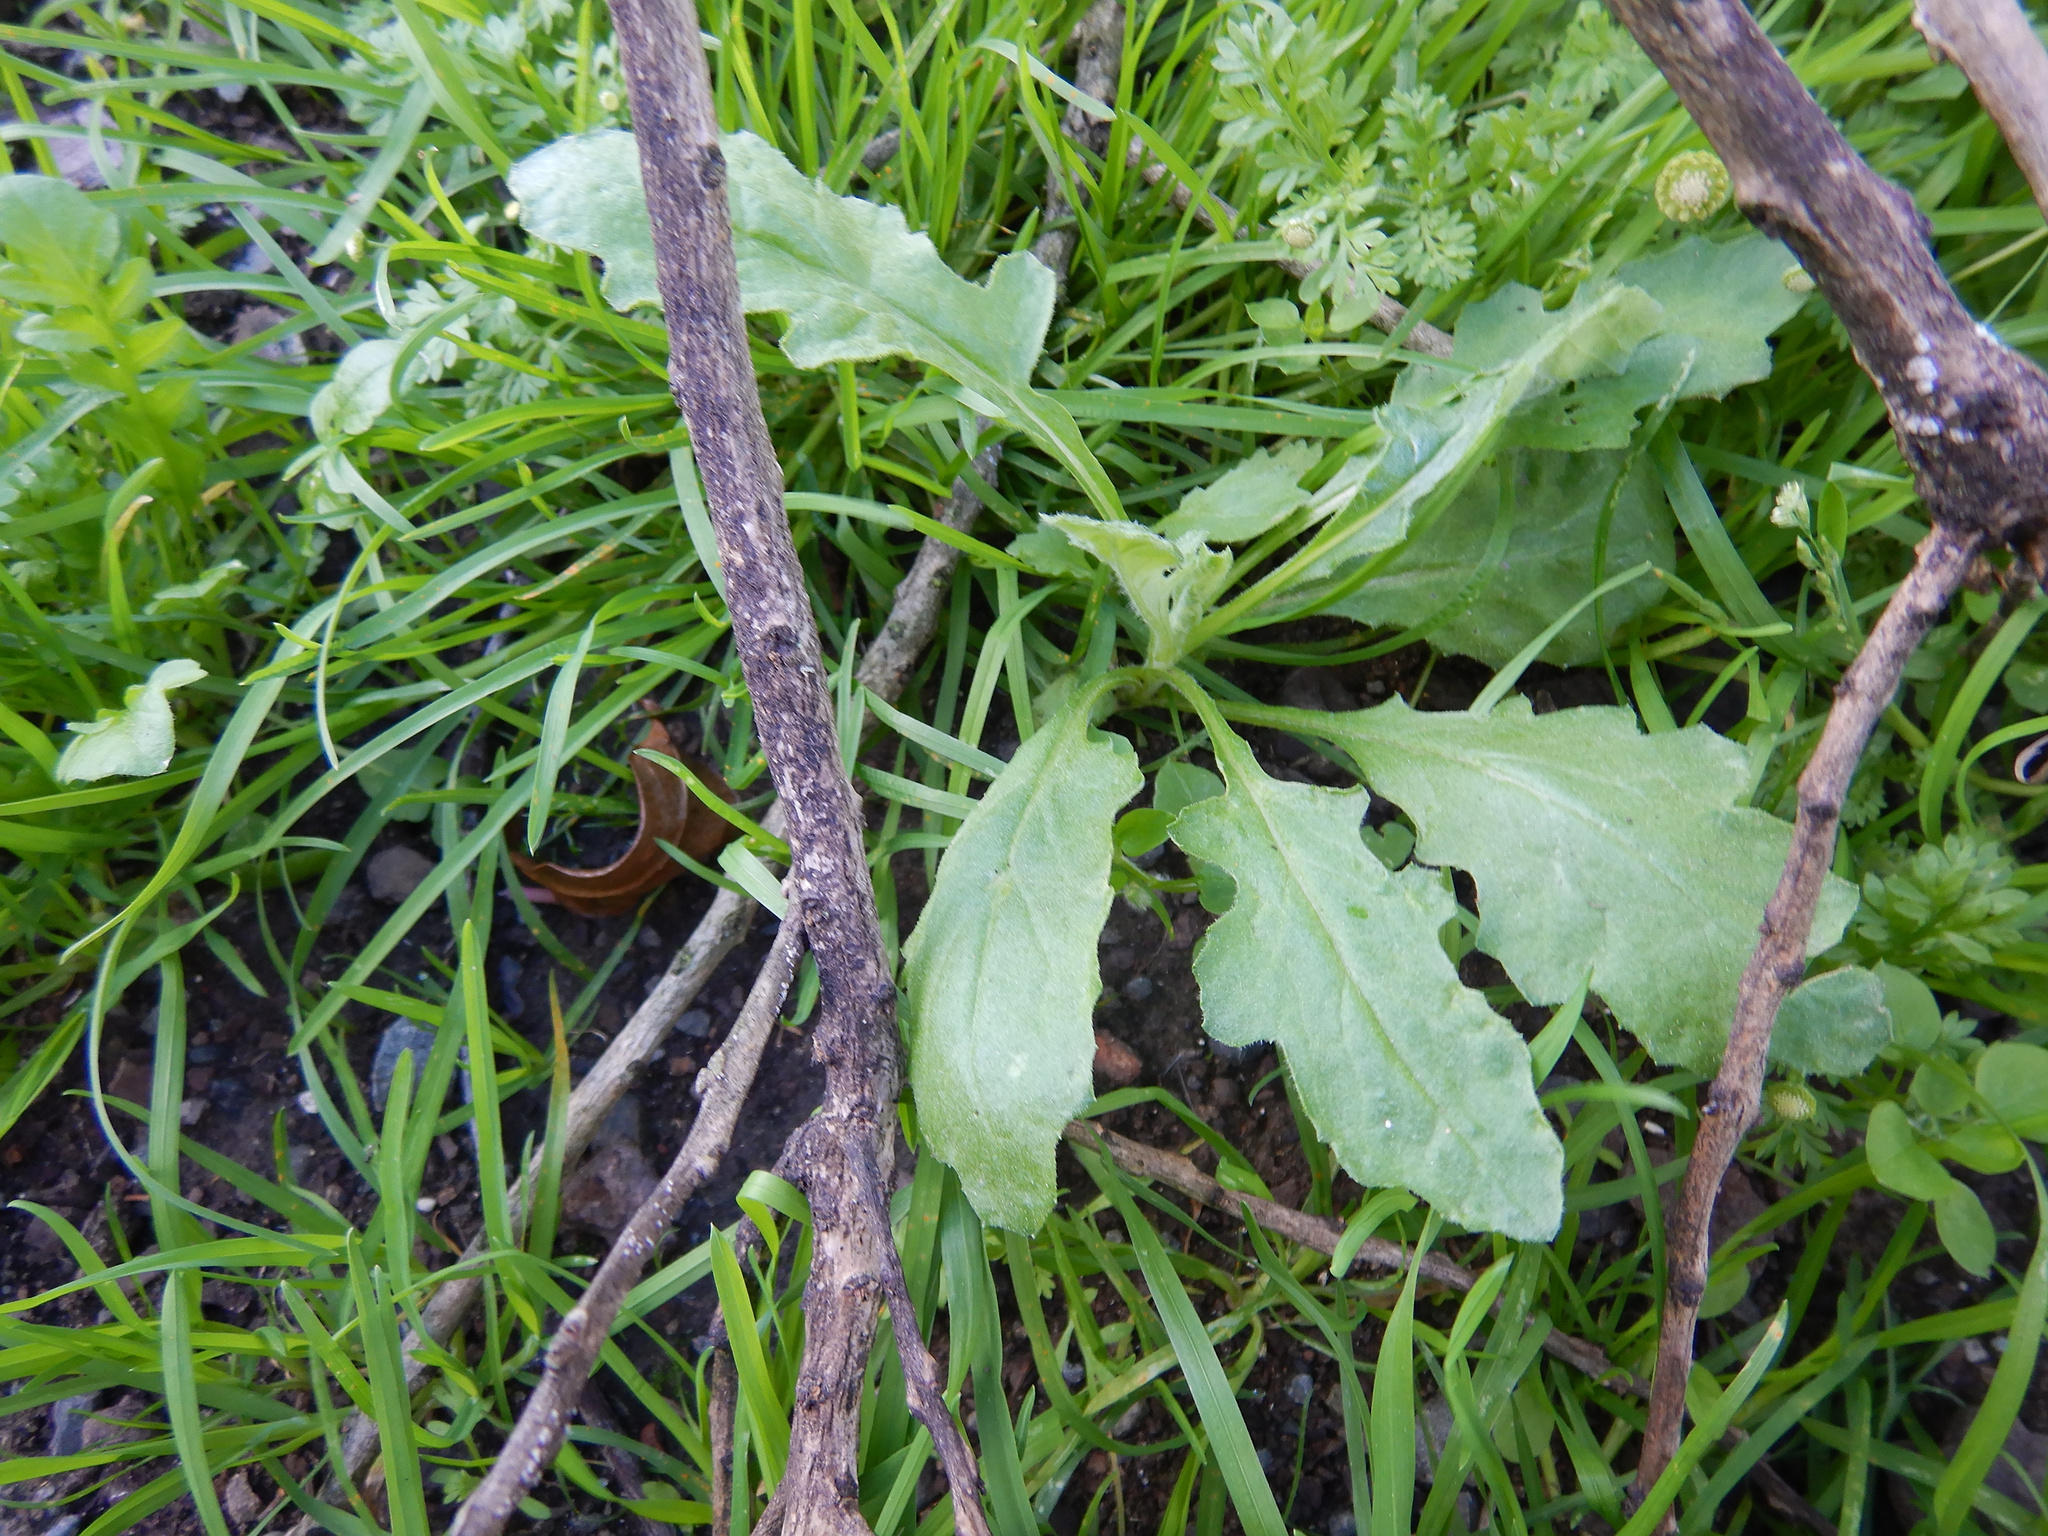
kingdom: Plantae
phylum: Tracheophyta
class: Magnoliopsida
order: Asterales
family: Asteraceae
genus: Senecio
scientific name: Senecio glomeratus
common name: Cutleaf burnweed
